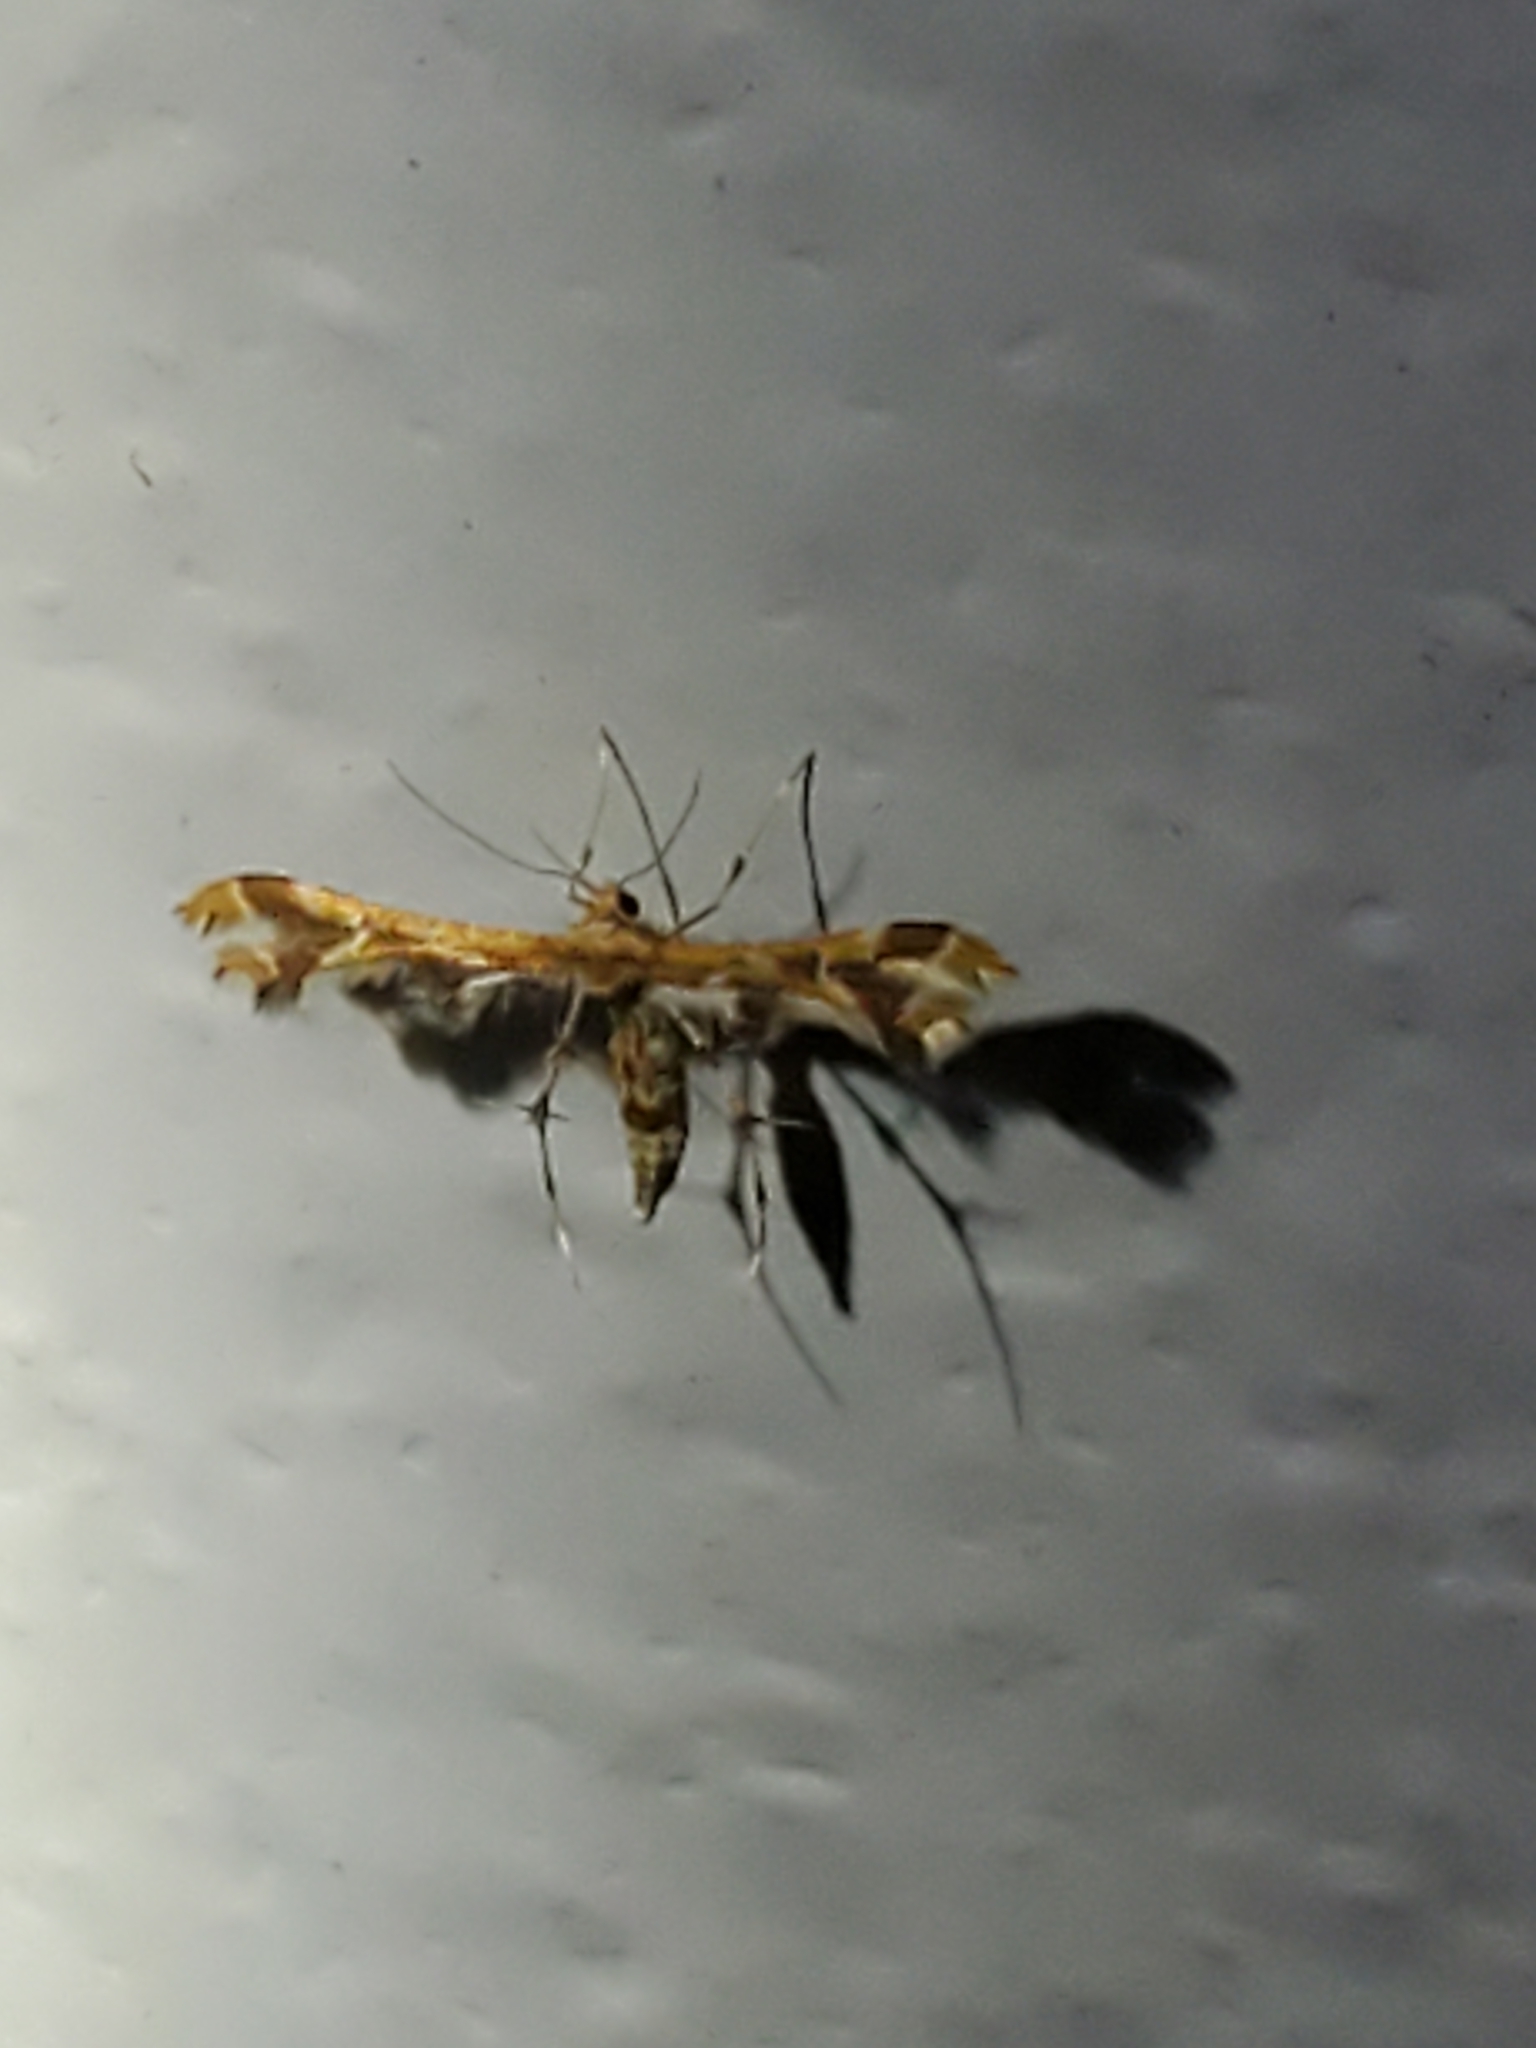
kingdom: Animalia
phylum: Arthropoda
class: Insecta
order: Lepidoptera
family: Pterophoridae
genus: Geina
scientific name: Geina periscelidactylus
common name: Grape plume moth
